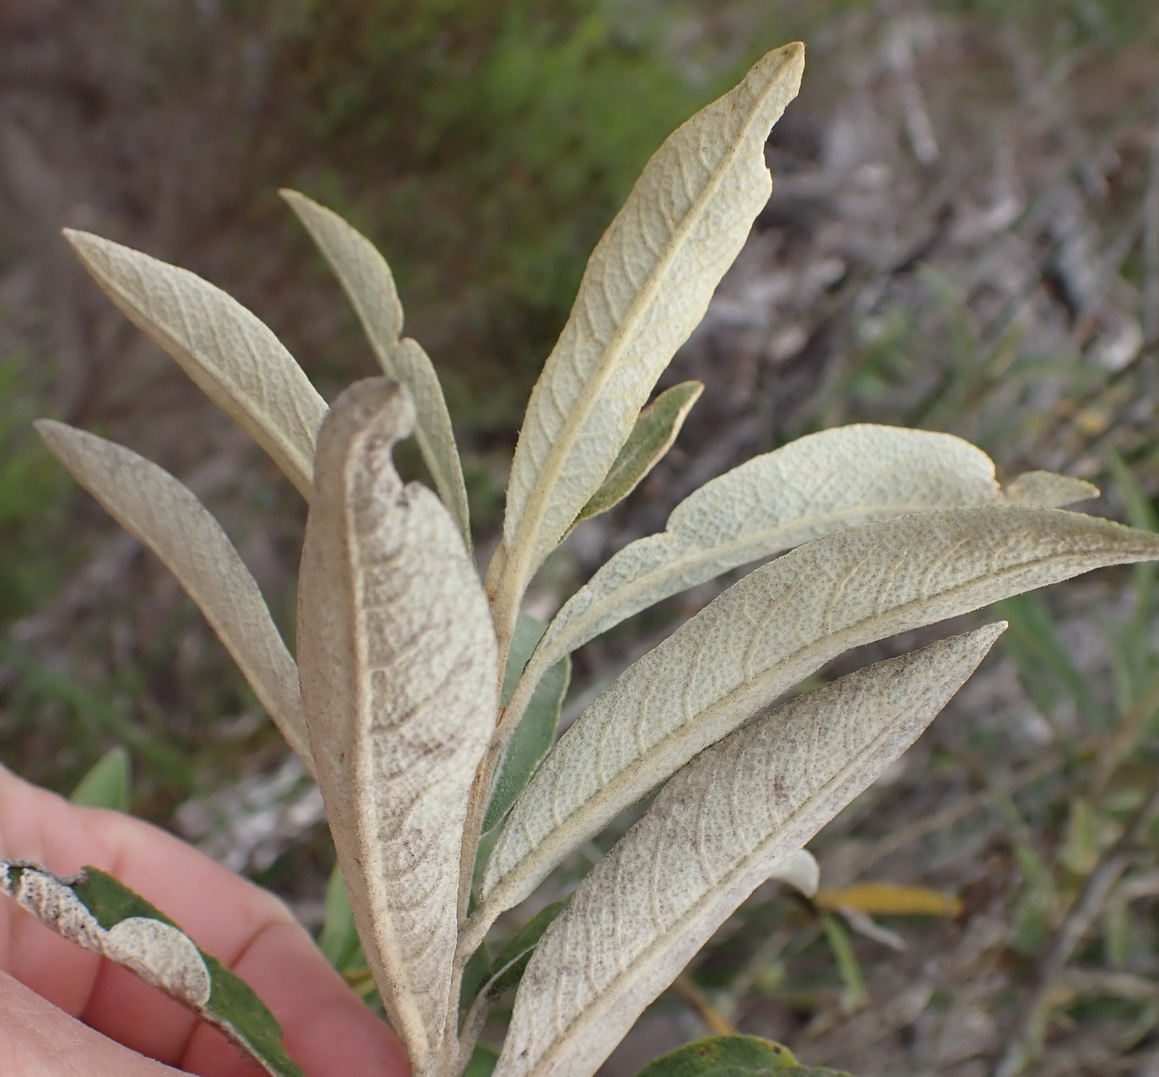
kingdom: Plantae
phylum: Tracheophyta
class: Magnoliopsida
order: Asterales
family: Asteraceae
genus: Tarchonanthus
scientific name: Tarchonanthus littoralis
